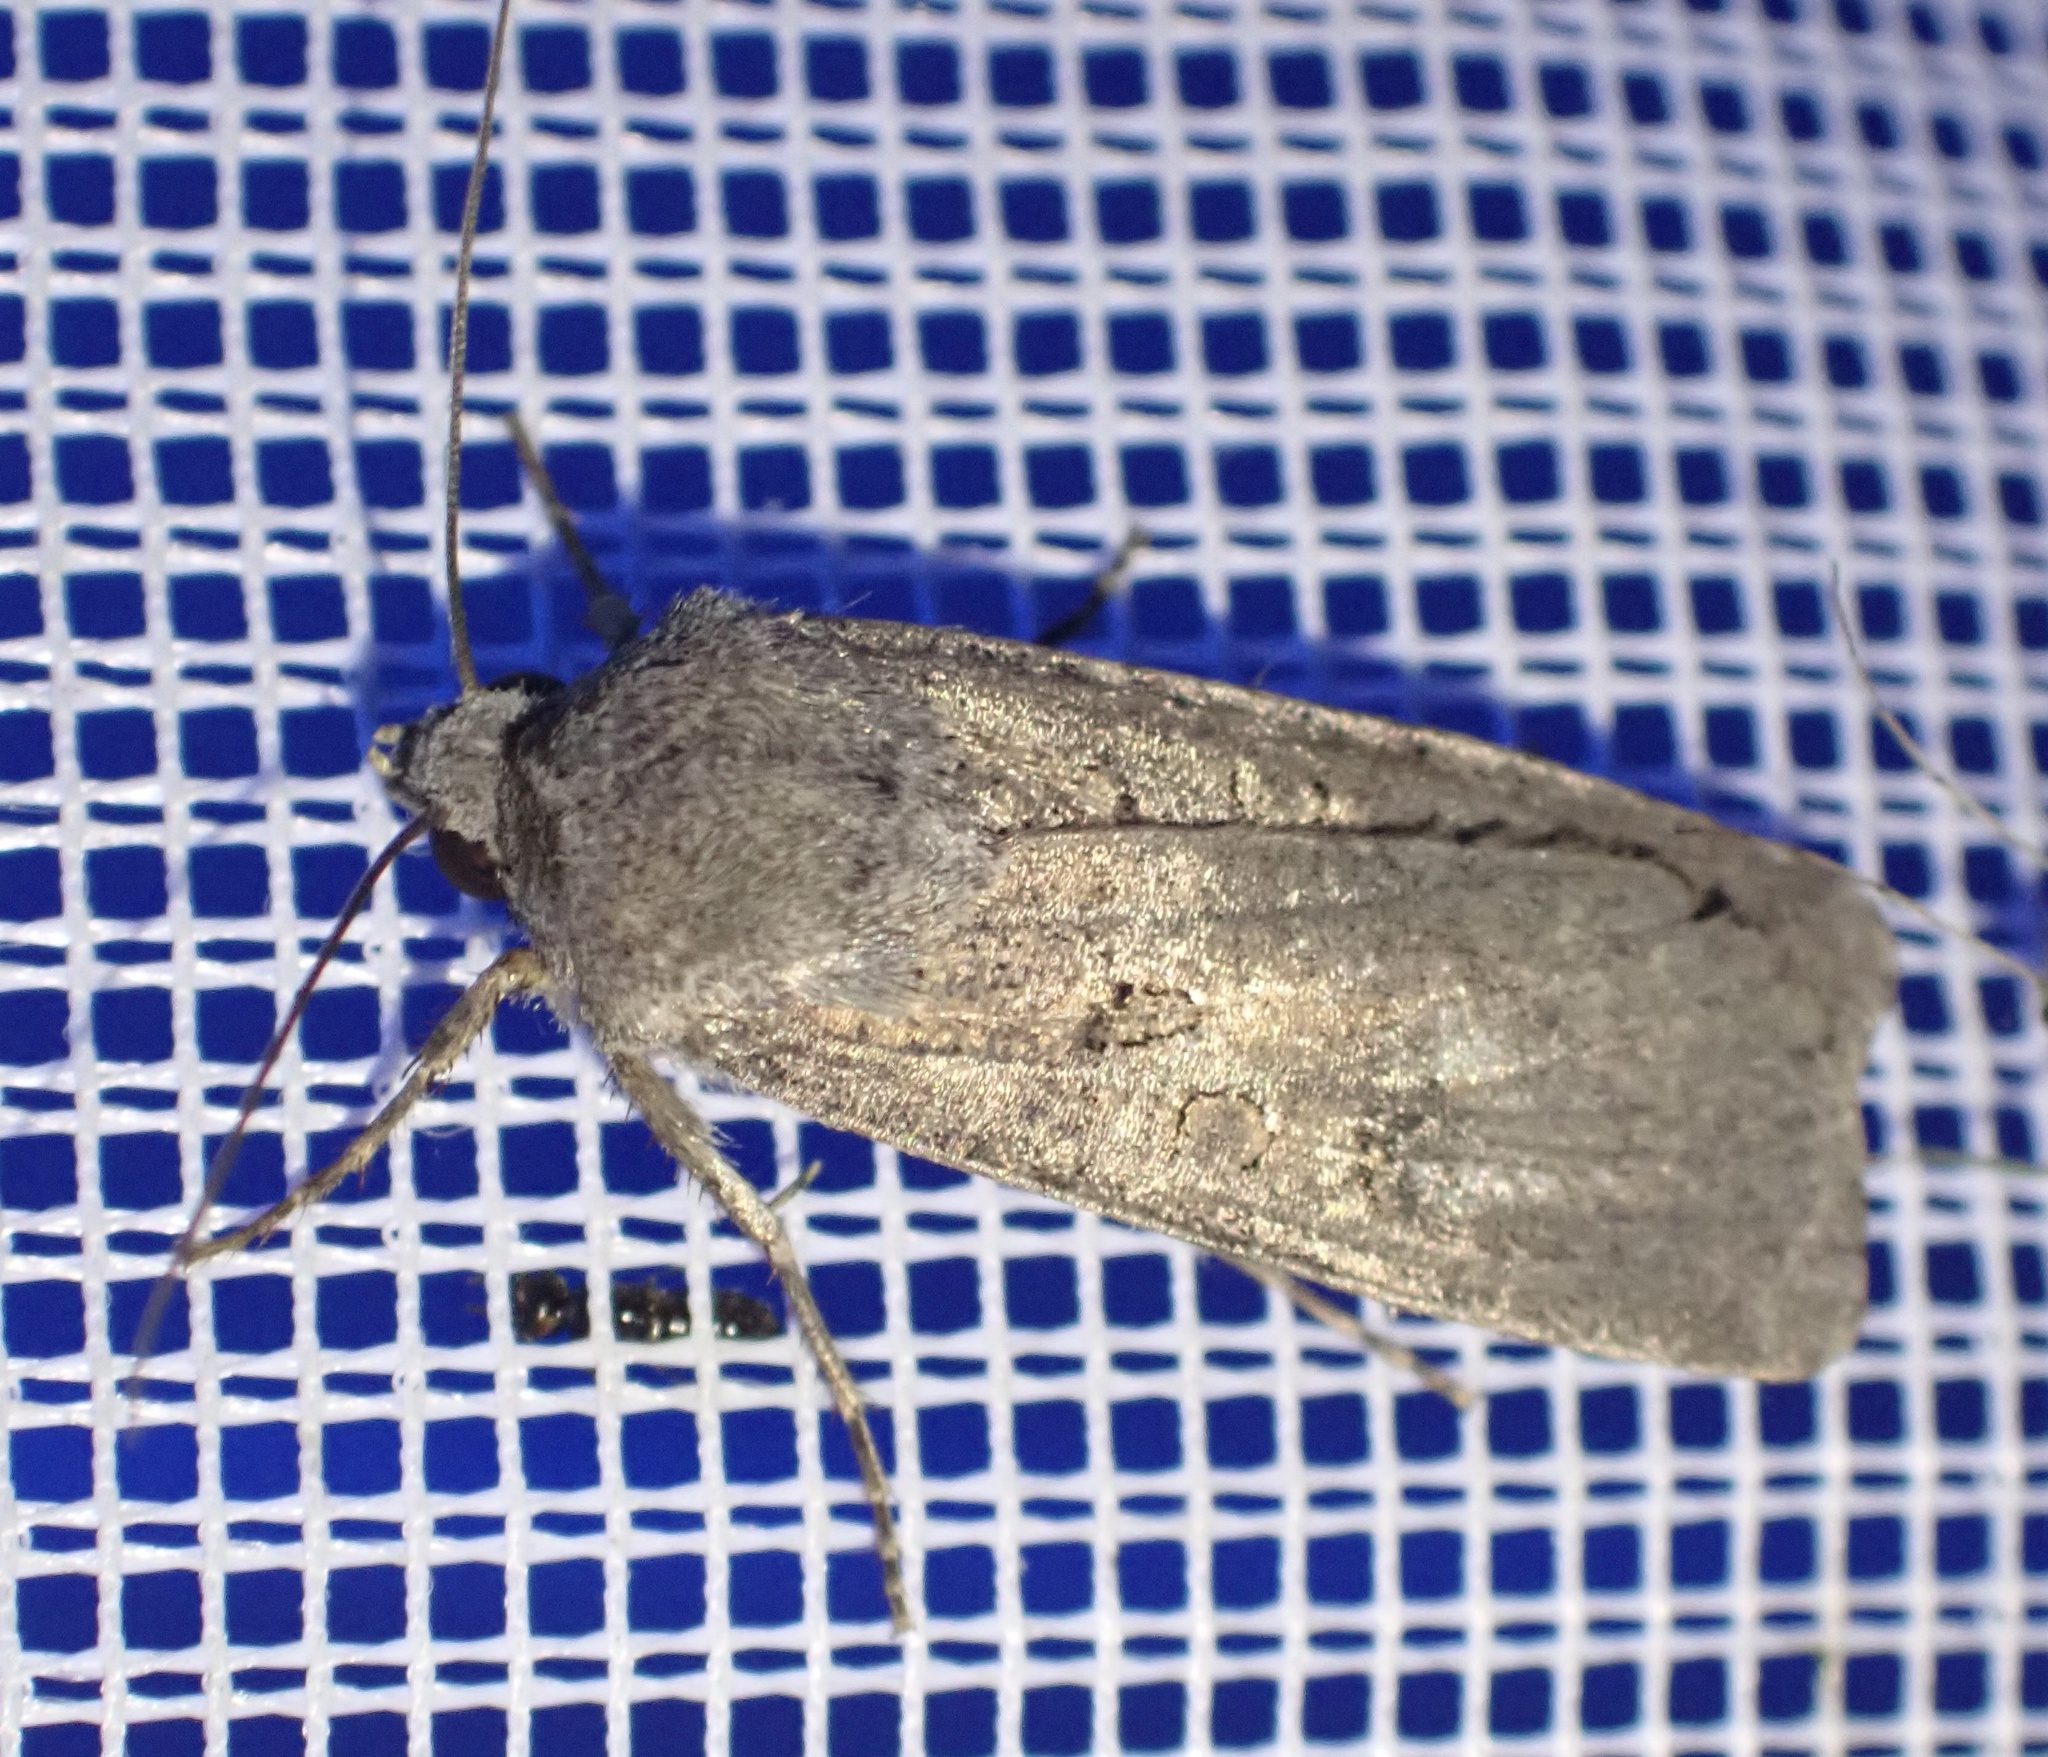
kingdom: Animalia
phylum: Arthropoda
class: Insecta
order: Lepidoptera
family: Noctuidae
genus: Agrotis
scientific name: Agrotis segetum
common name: Turnip moth
